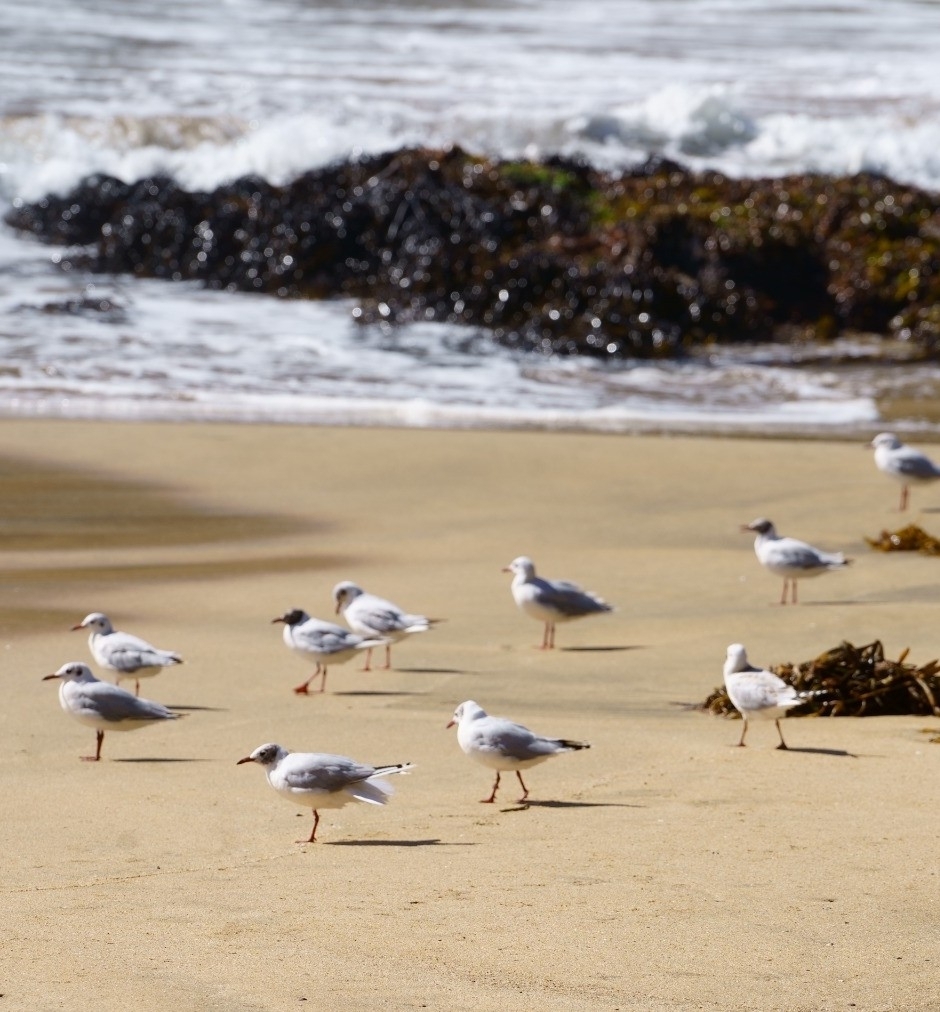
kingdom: Animalia
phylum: Chordata
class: Aves
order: Charadriiformes
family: Laridae
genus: Chroicocephalus
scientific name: Chroicocephalus maculipennis
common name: Brown-hooded gull
